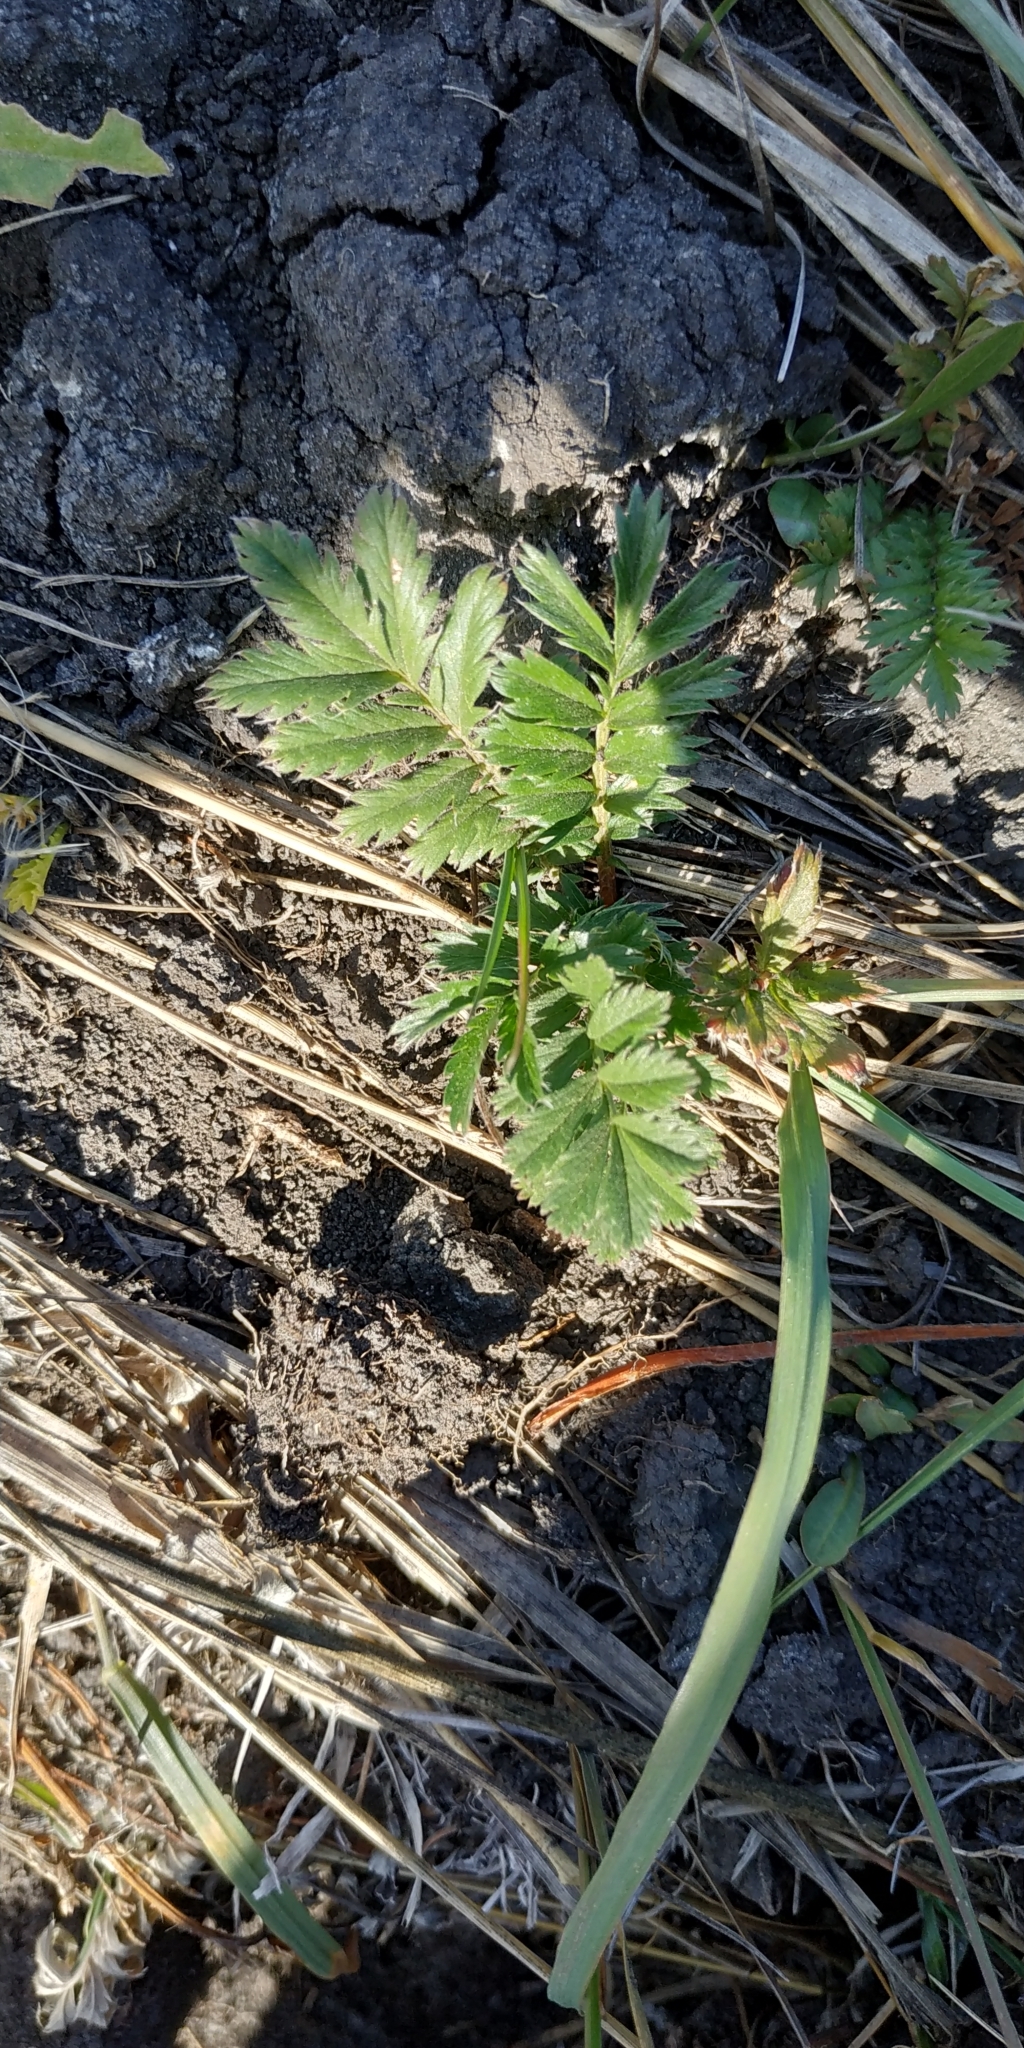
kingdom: Plantae
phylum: Tracheophyta
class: Magnoliopsida
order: Rosales
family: Rosaceae
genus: Argentina
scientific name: Argentina anserina
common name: Common silverweed
